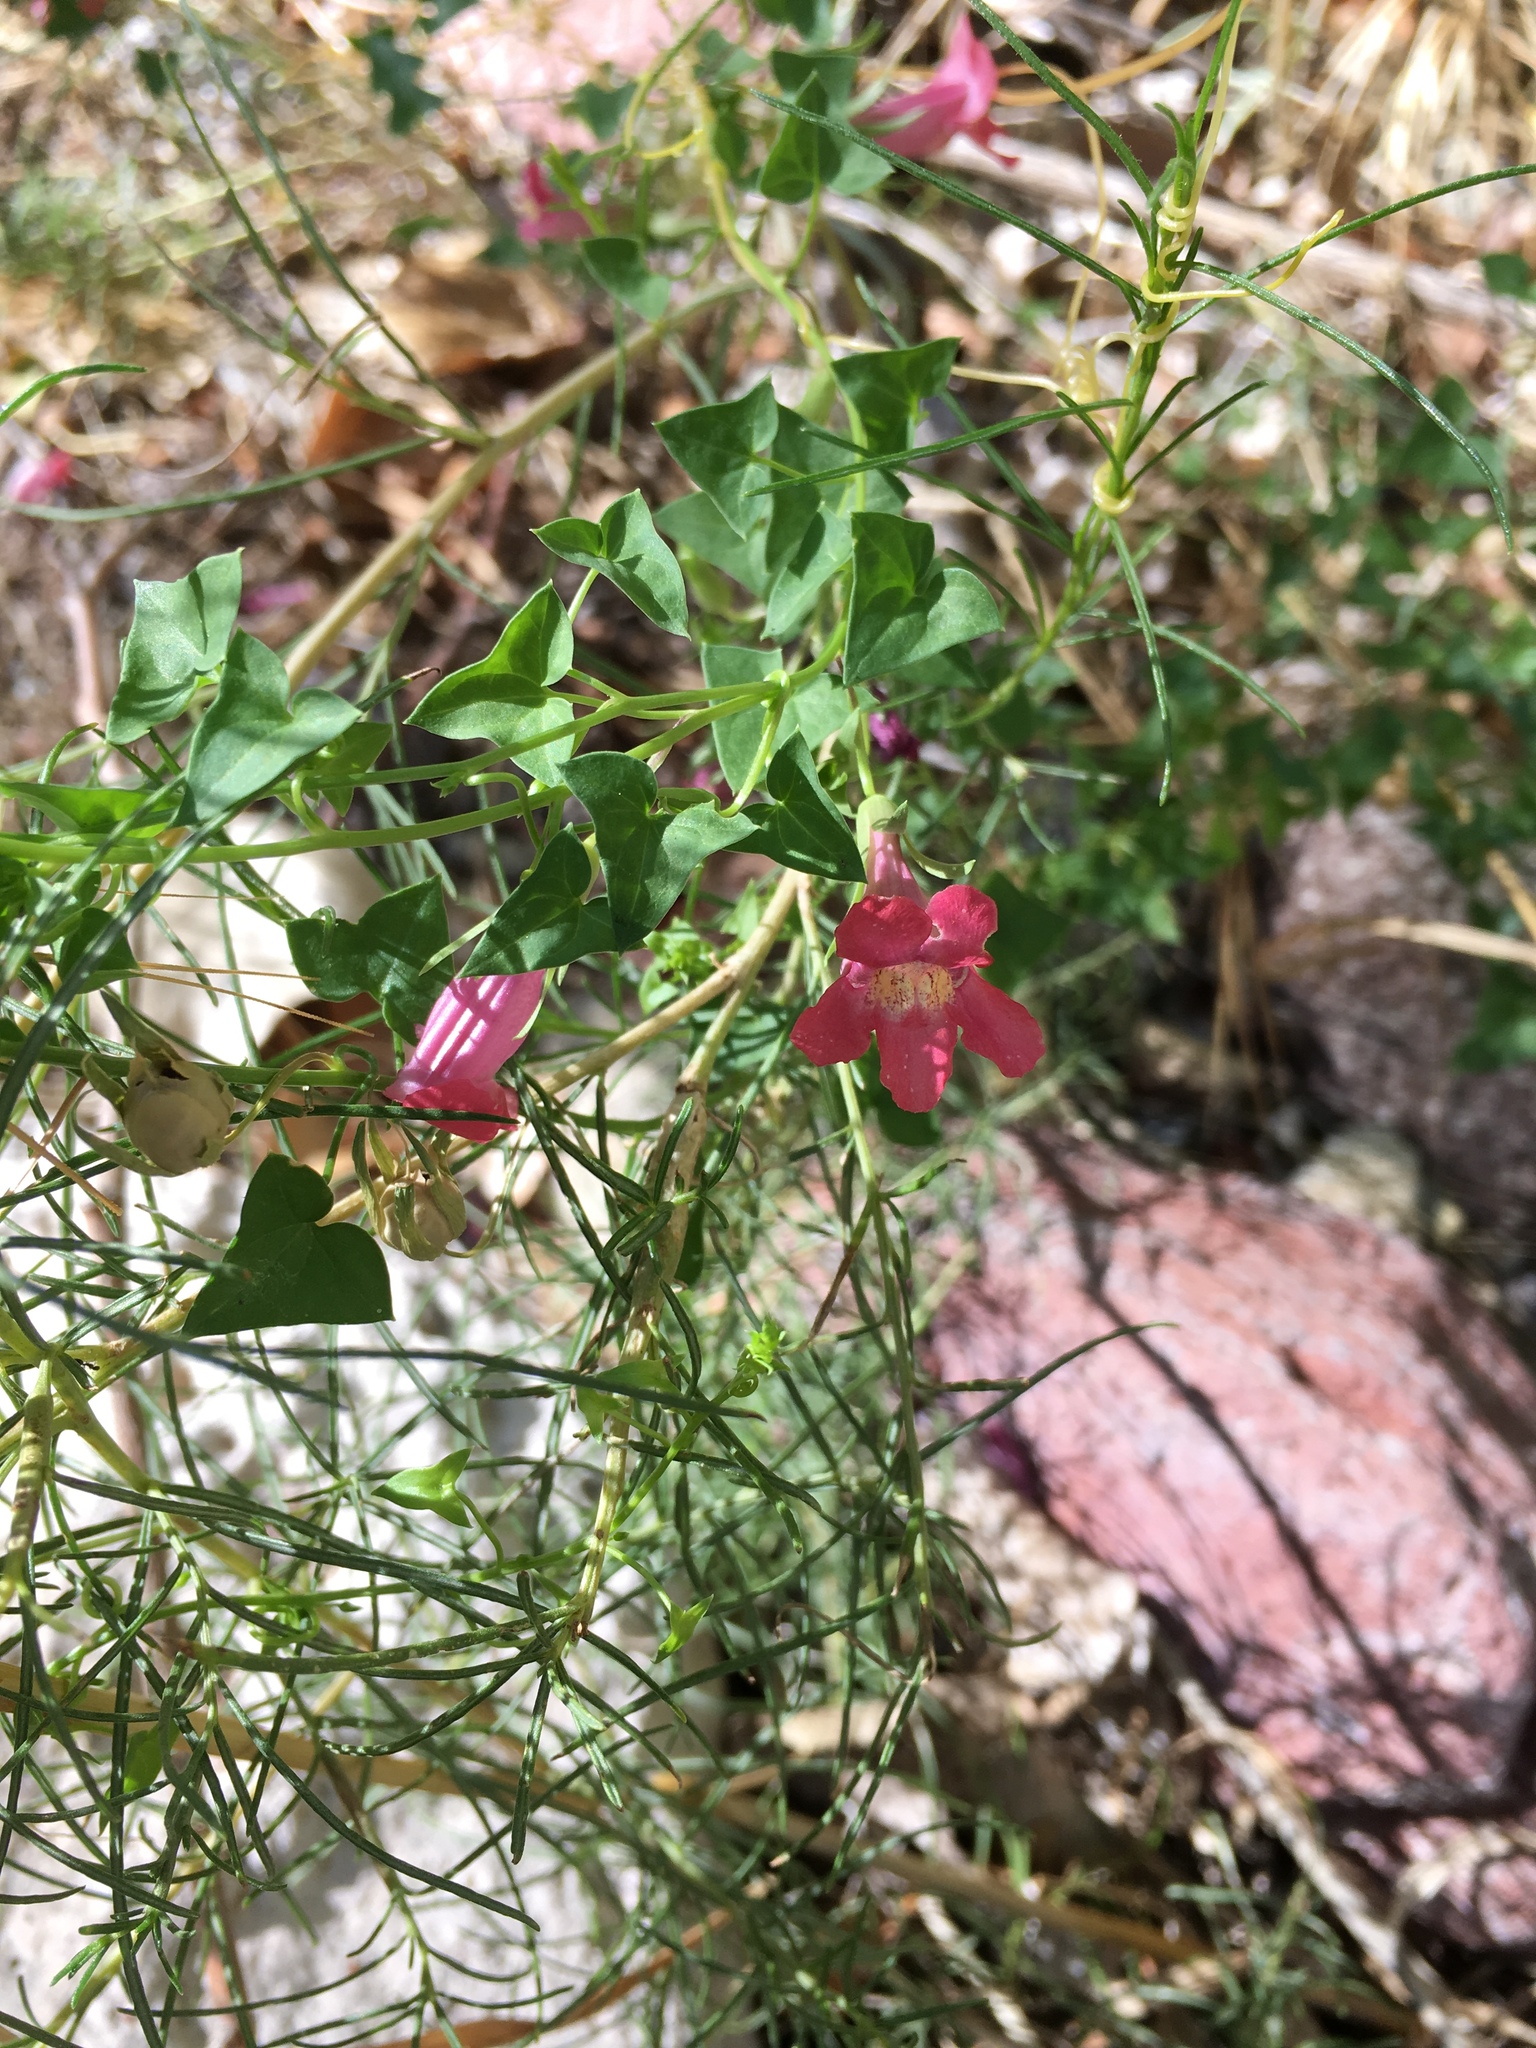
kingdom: Plantae
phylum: Tracheophyta
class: Magnoliopsida
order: Lamiales
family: Plantaginaceae
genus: Maurandella
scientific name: Maurandella antirrhiniflora
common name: Violet twining-snapdragon
